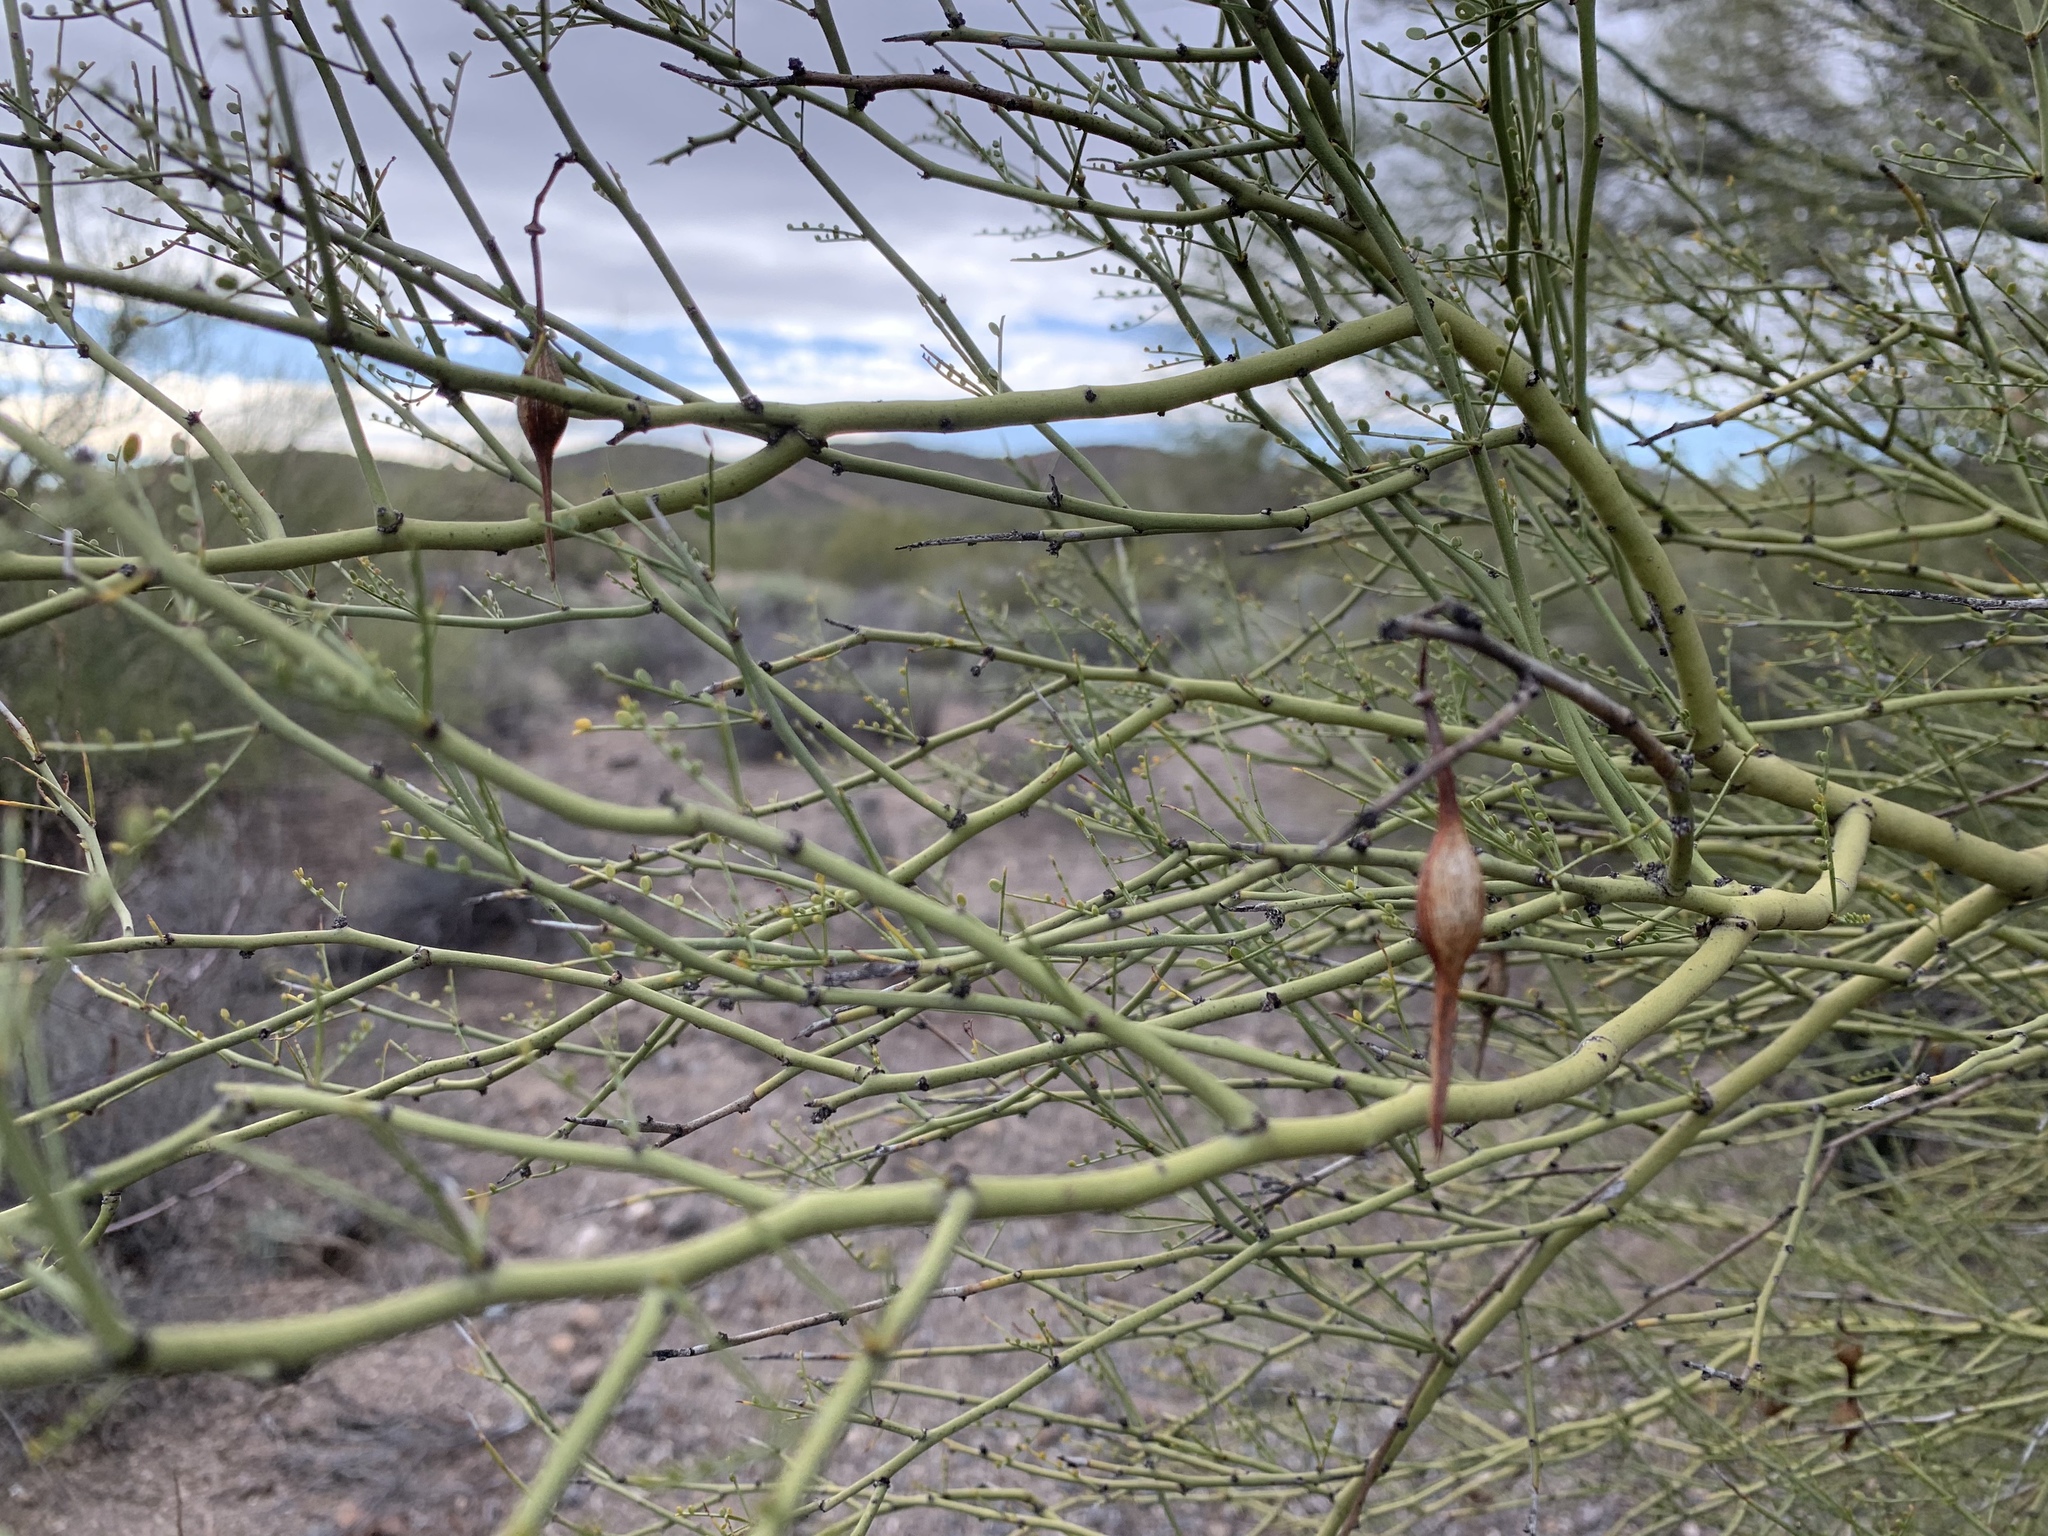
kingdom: Plantae
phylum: Tracheophyta
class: Magnoliopsida
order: Fabales
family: Fabaceae
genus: Parkinsonia
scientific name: Parkinsonia microphylla
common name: Yellow paloverde
